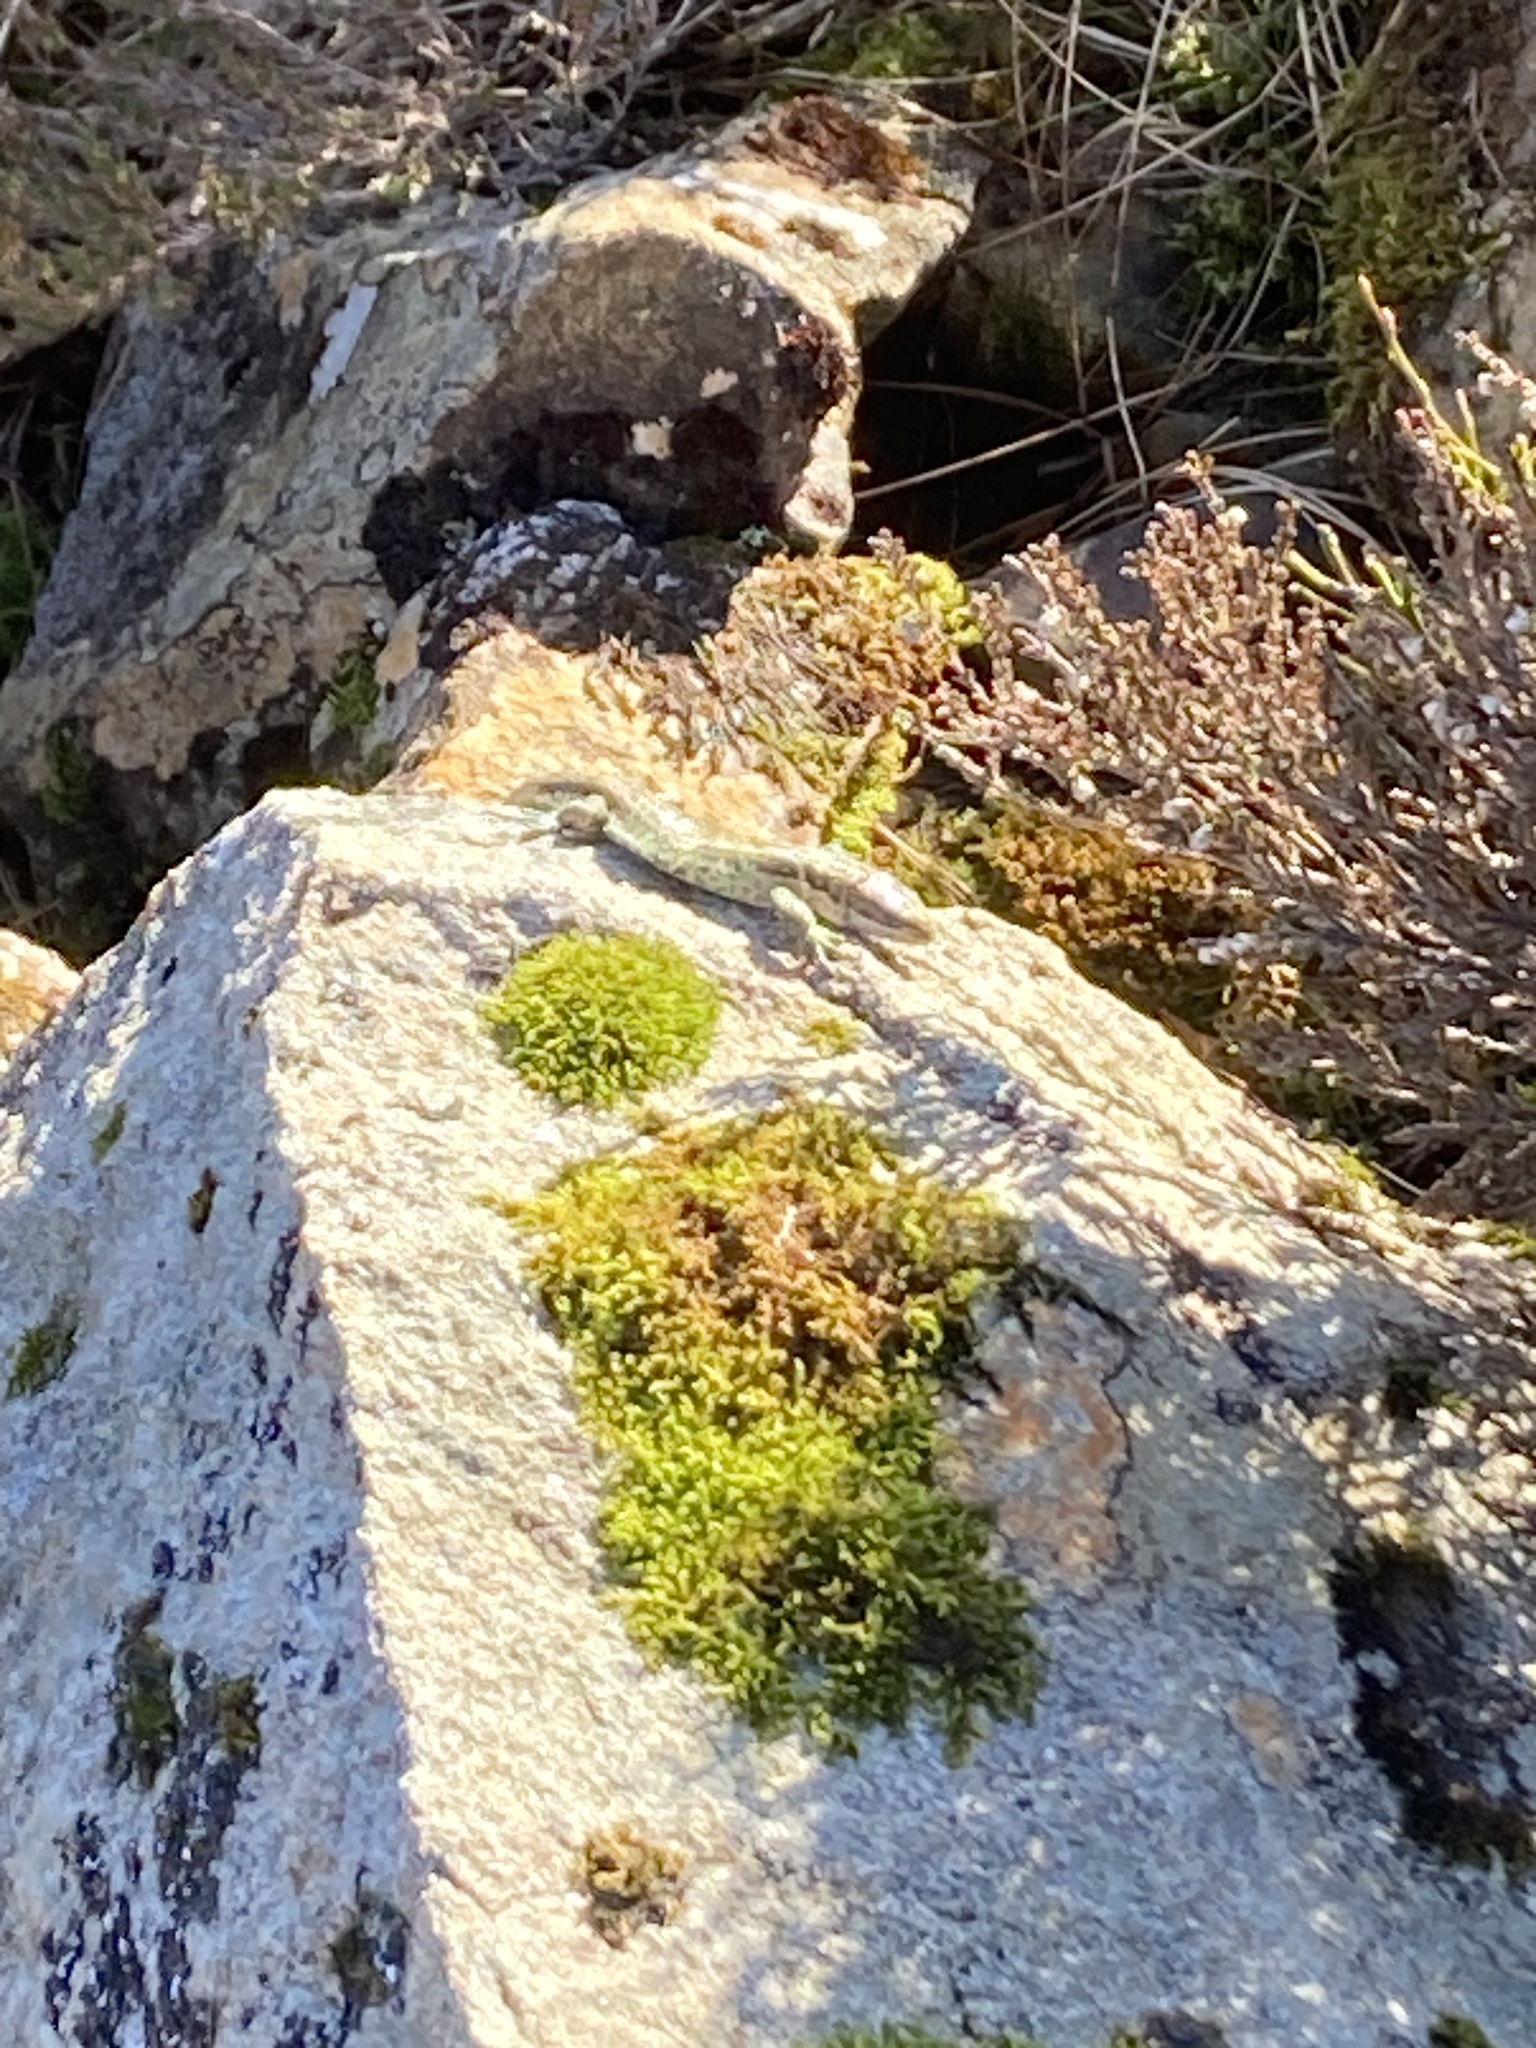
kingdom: Animalia
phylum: Chordata
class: Squamata
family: Lacertidae
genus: Zootoca
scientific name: Zootoca vivipara
